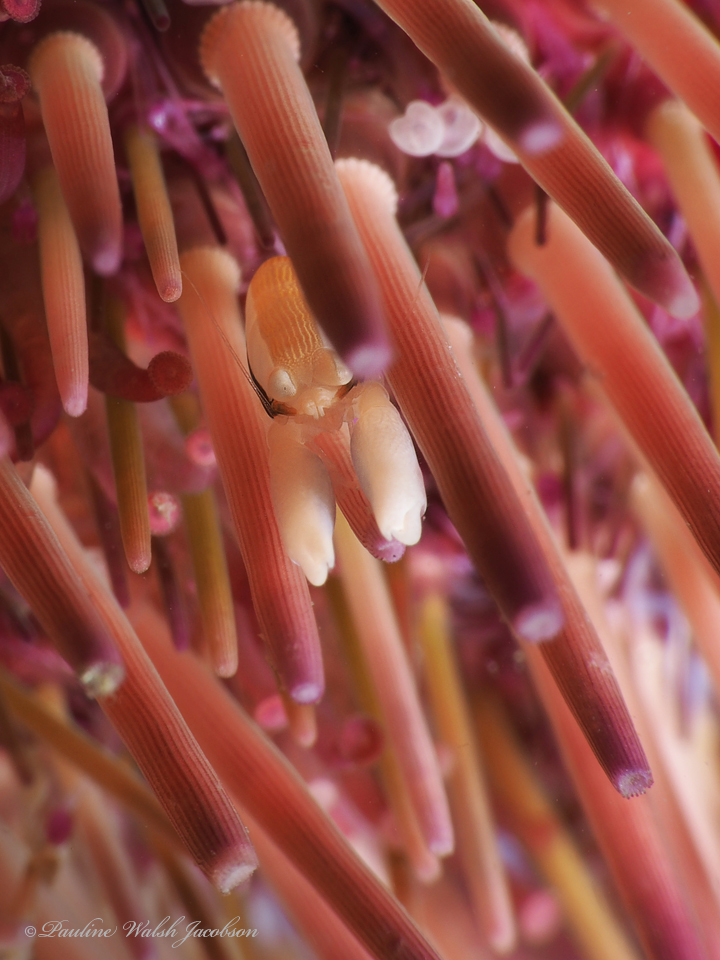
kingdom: Animalia
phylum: Arthropoda
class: Malacostraca
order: Decapoda
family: Palaemonidae
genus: Gnathophylloides
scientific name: Gnathophylloides mineri
